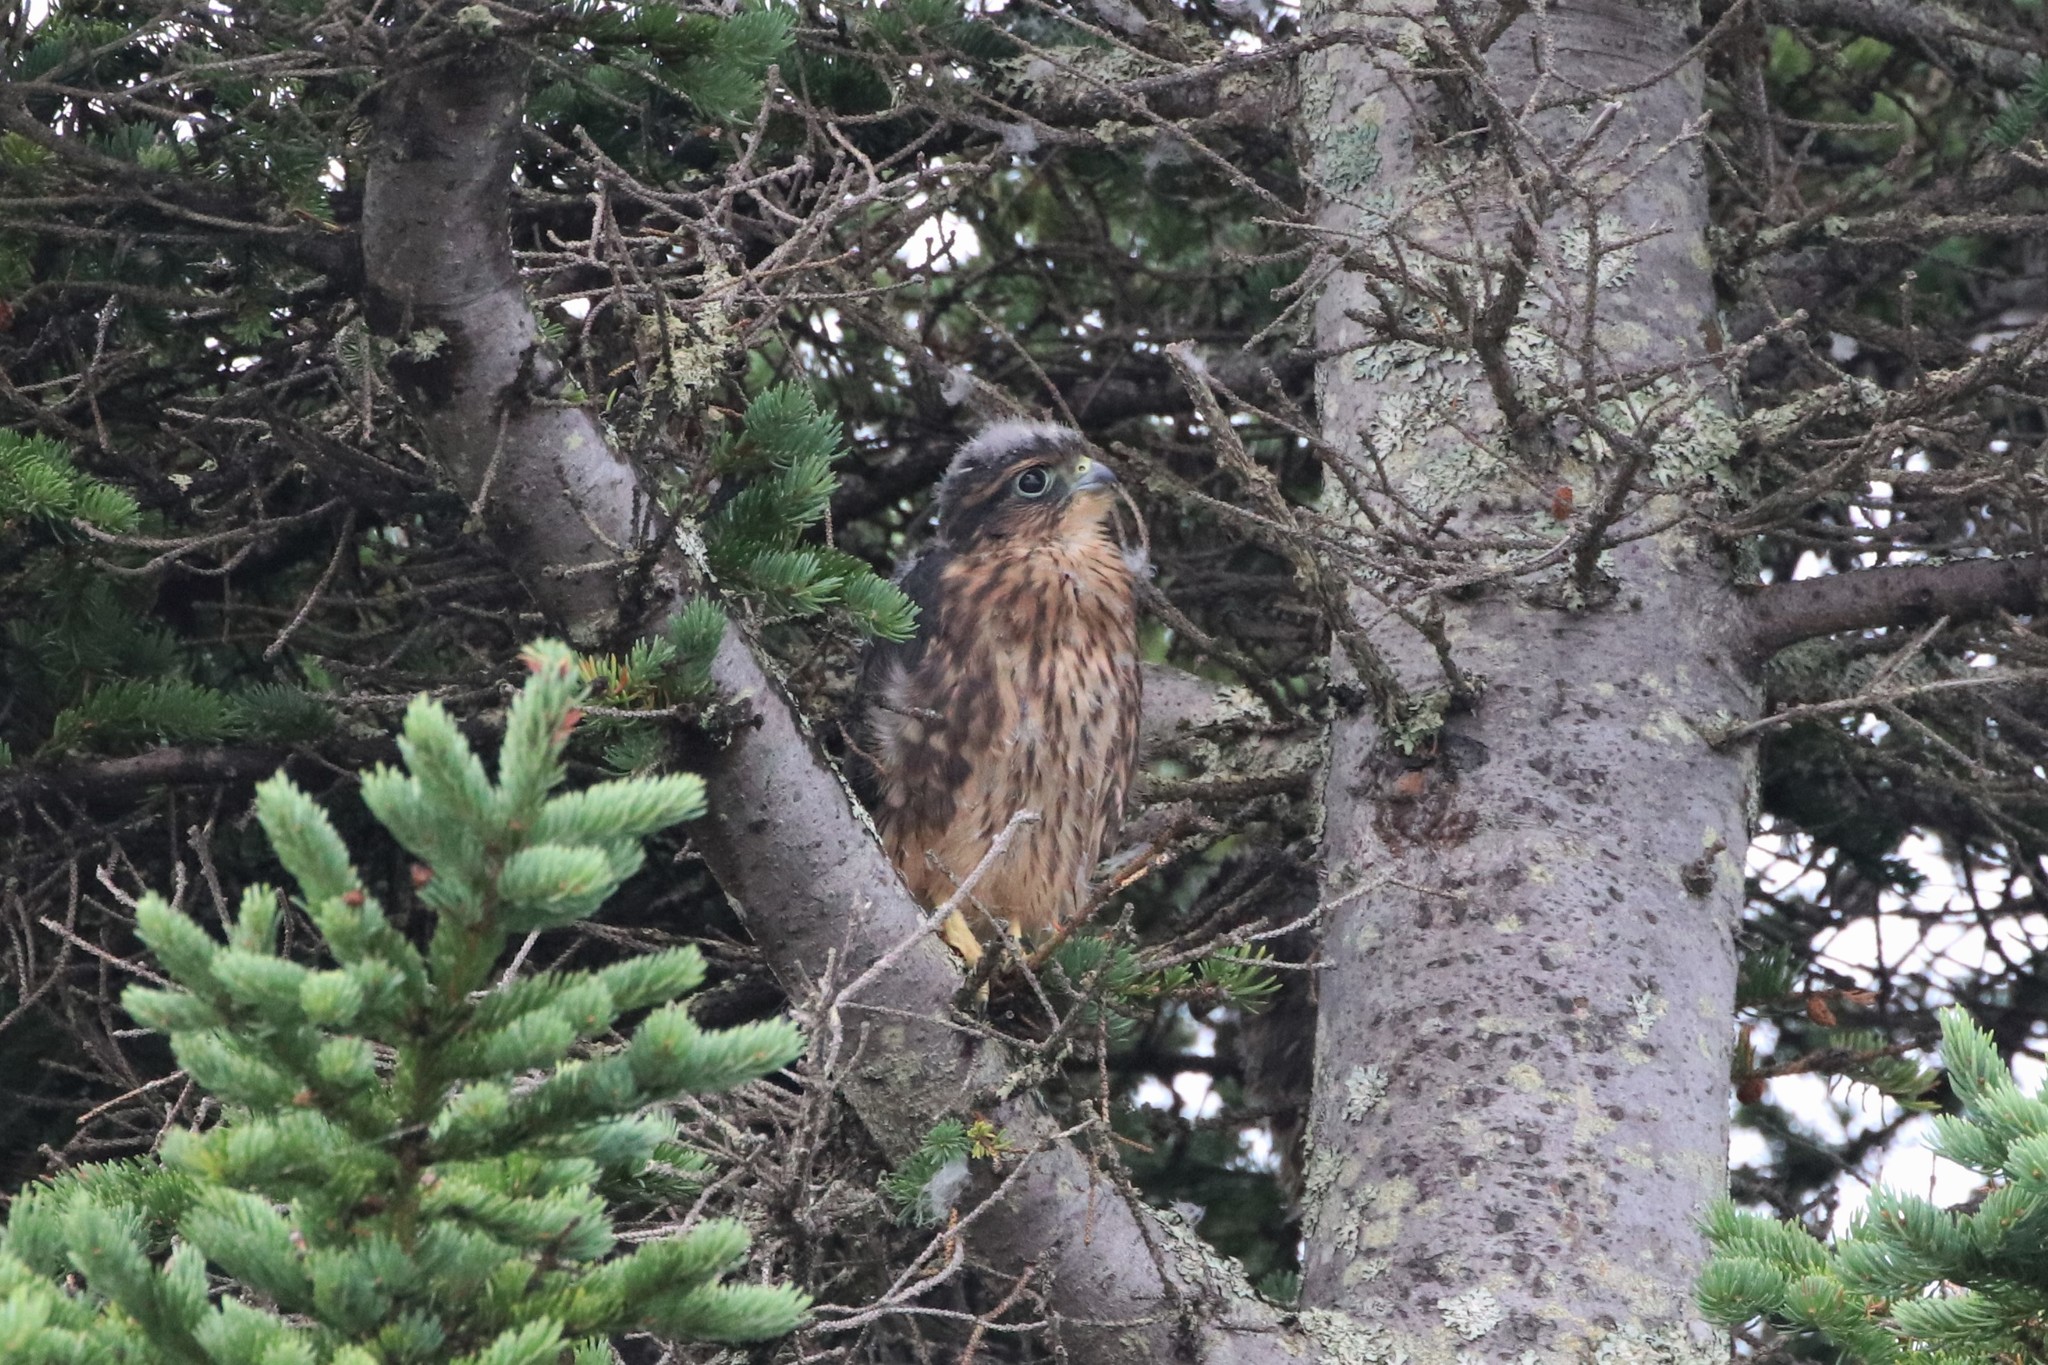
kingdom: Animalia
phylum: Chordata
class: Aves
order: Falconiformes
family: Falconidae
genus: Falco
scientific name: Falco columbarius
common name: Merlin
